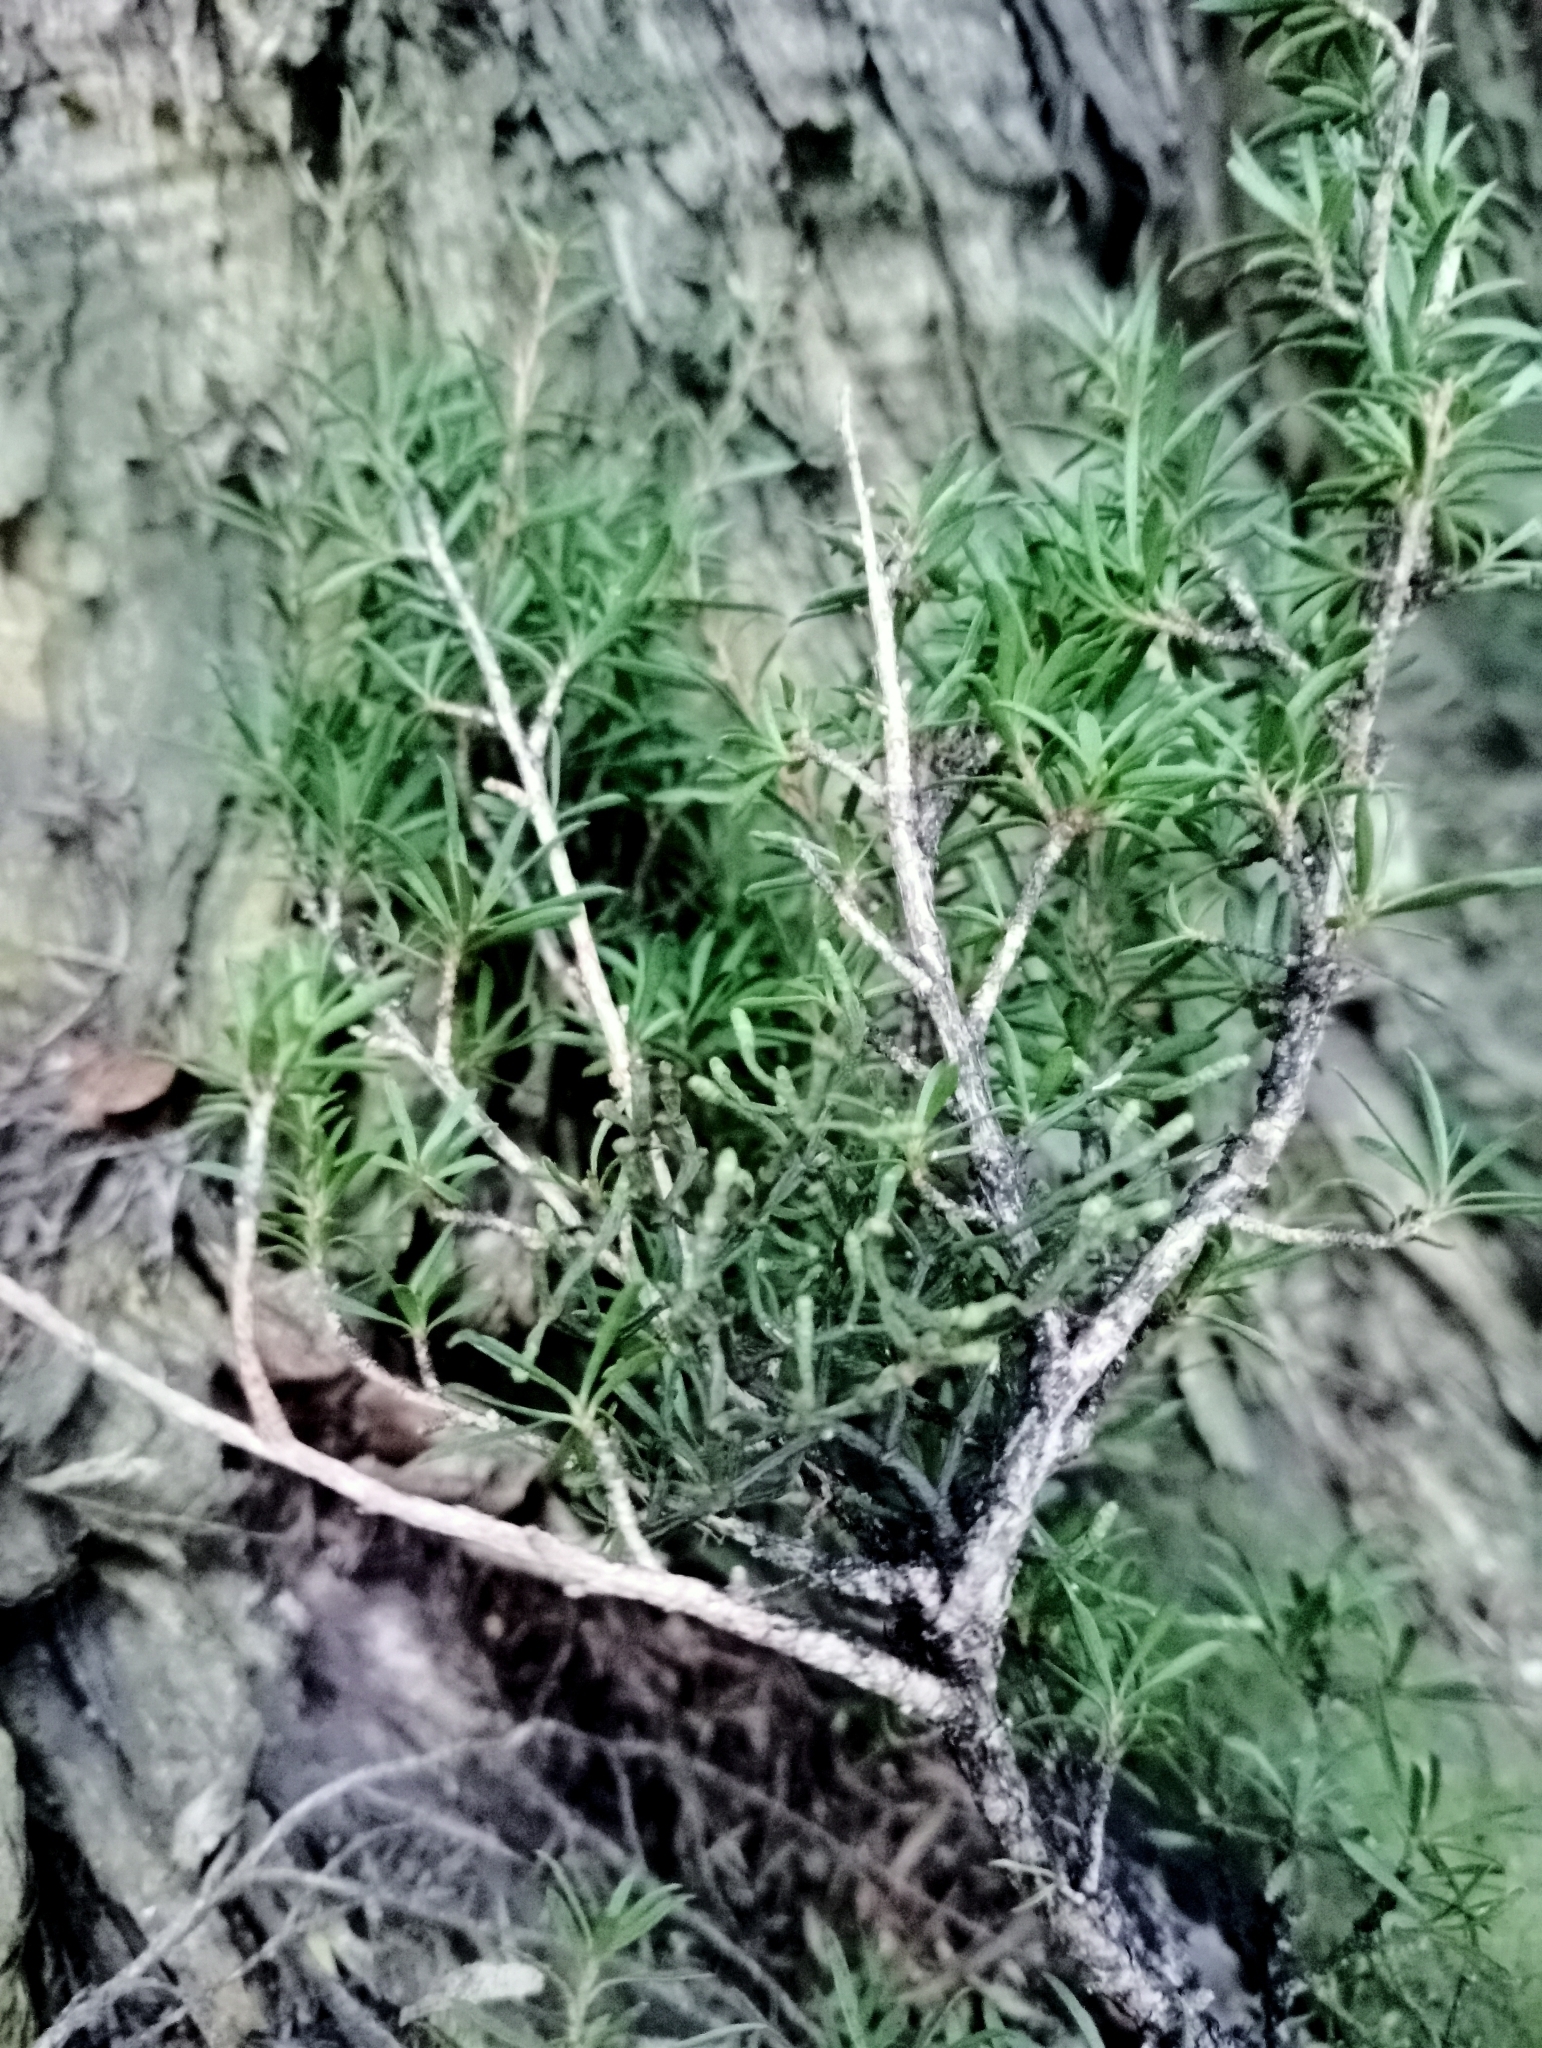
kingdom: Plantae
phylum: Tracheophyta
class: Magnoliopsida
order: Santalales
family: Viscaceae
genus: Korthalsella
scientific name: Korthalsella salicornioides
